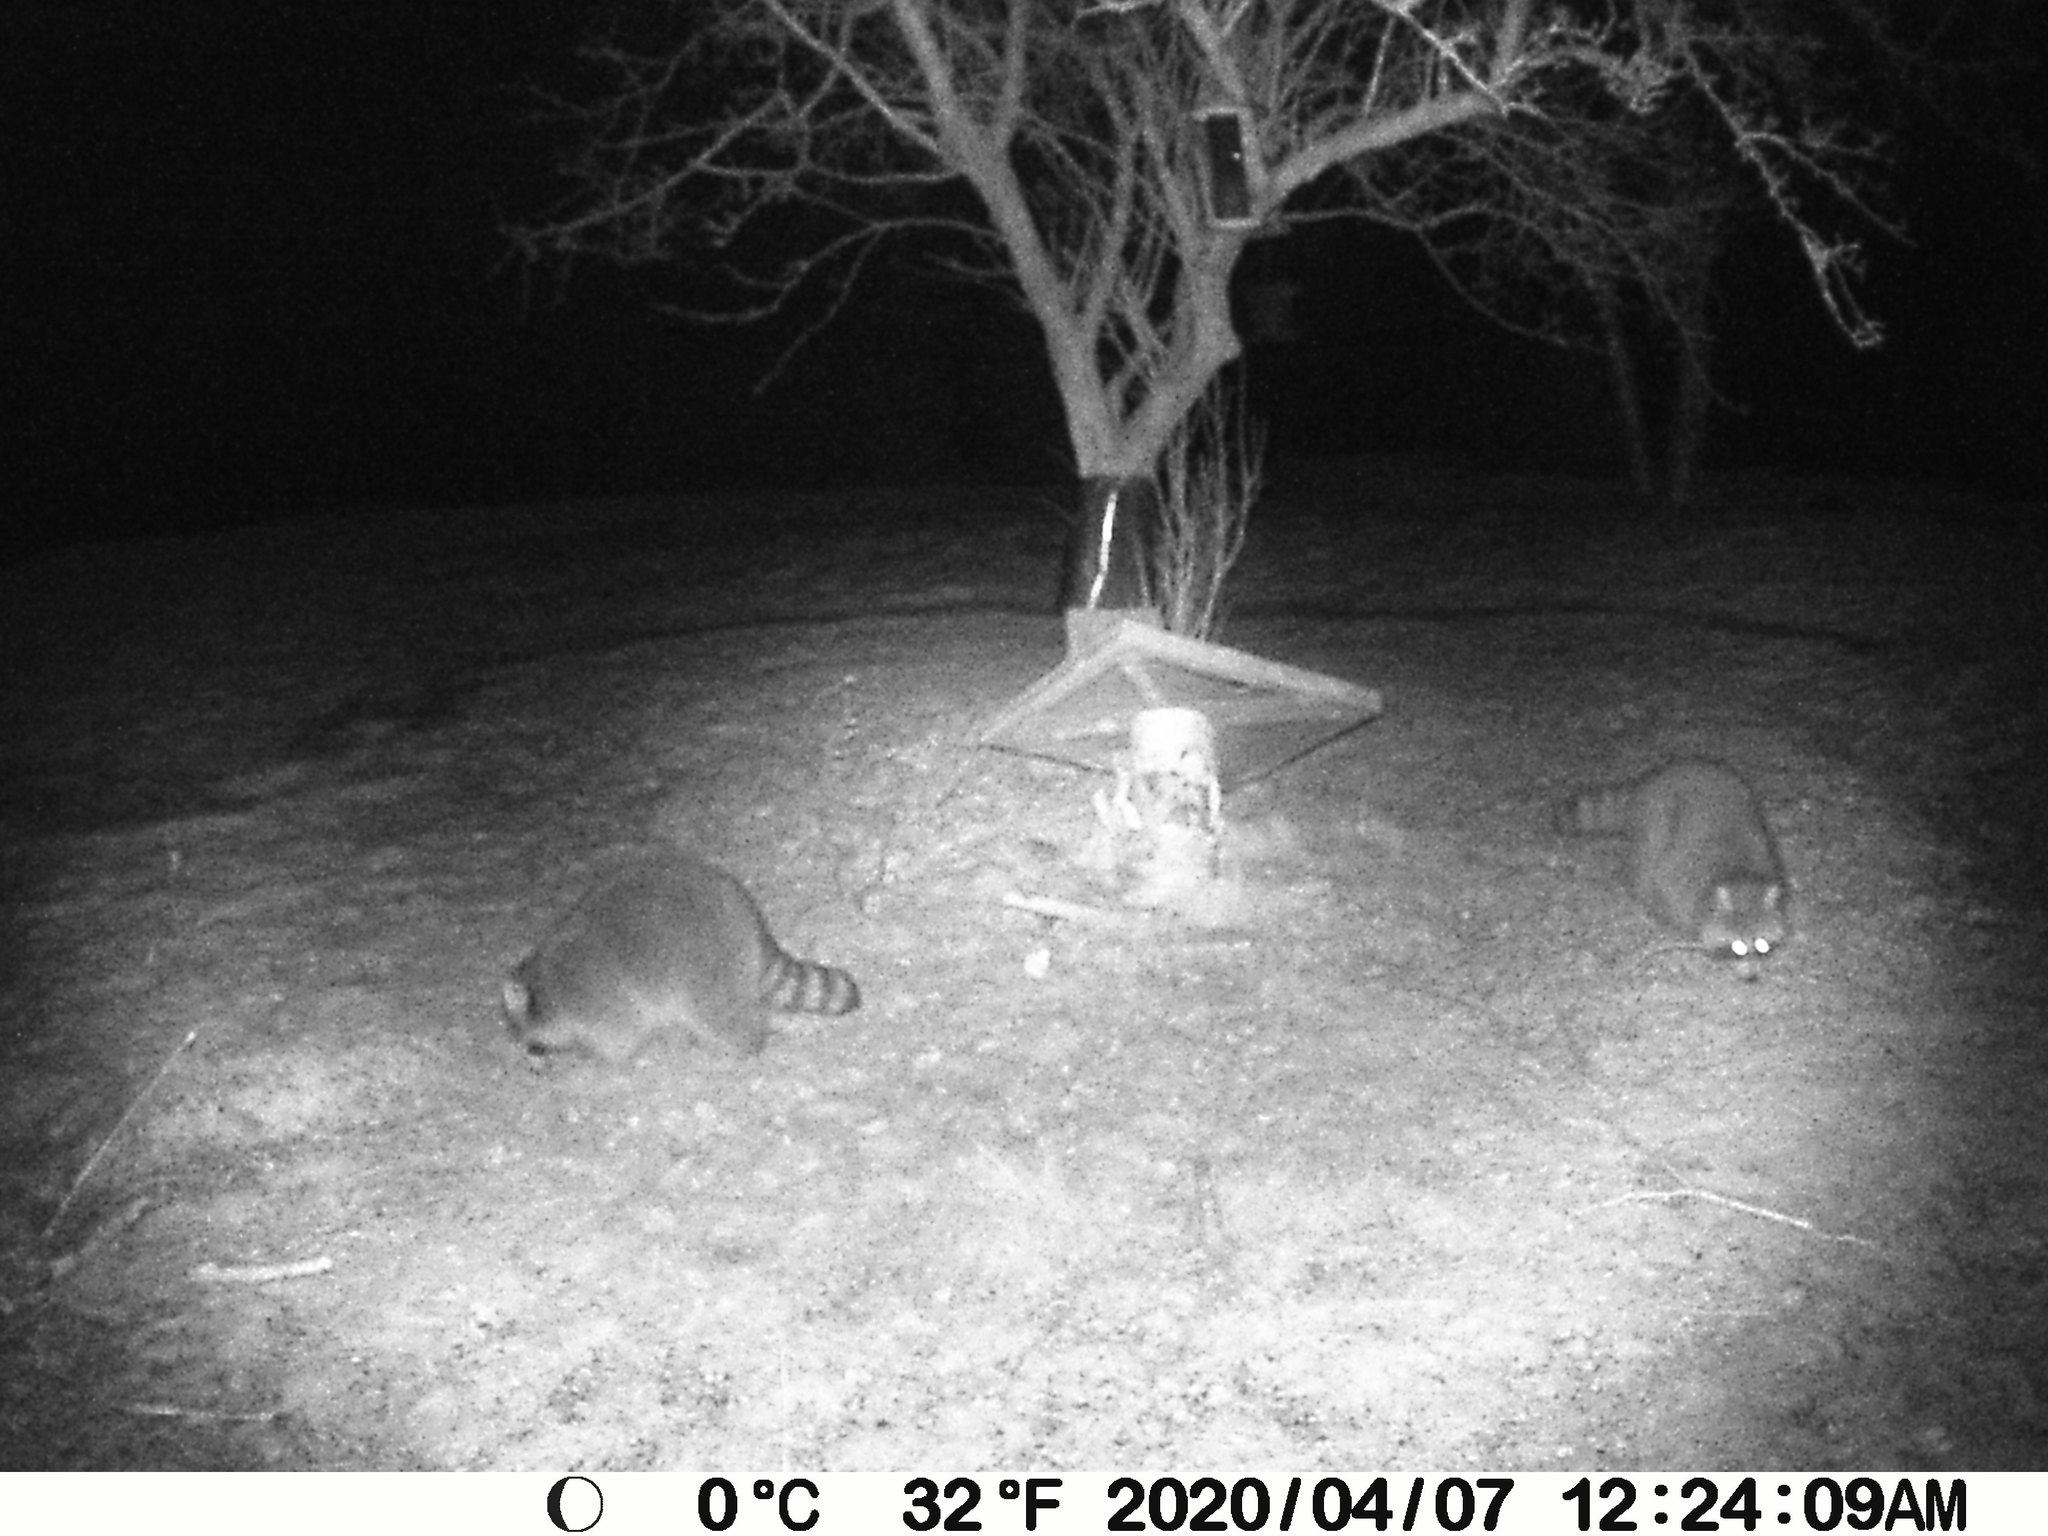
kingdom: Animalia
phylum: Chordata
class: Mammalia
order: Carnivora
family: Procyonidae
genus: Procyon
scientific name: Procyon lotor
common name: Raccoon
